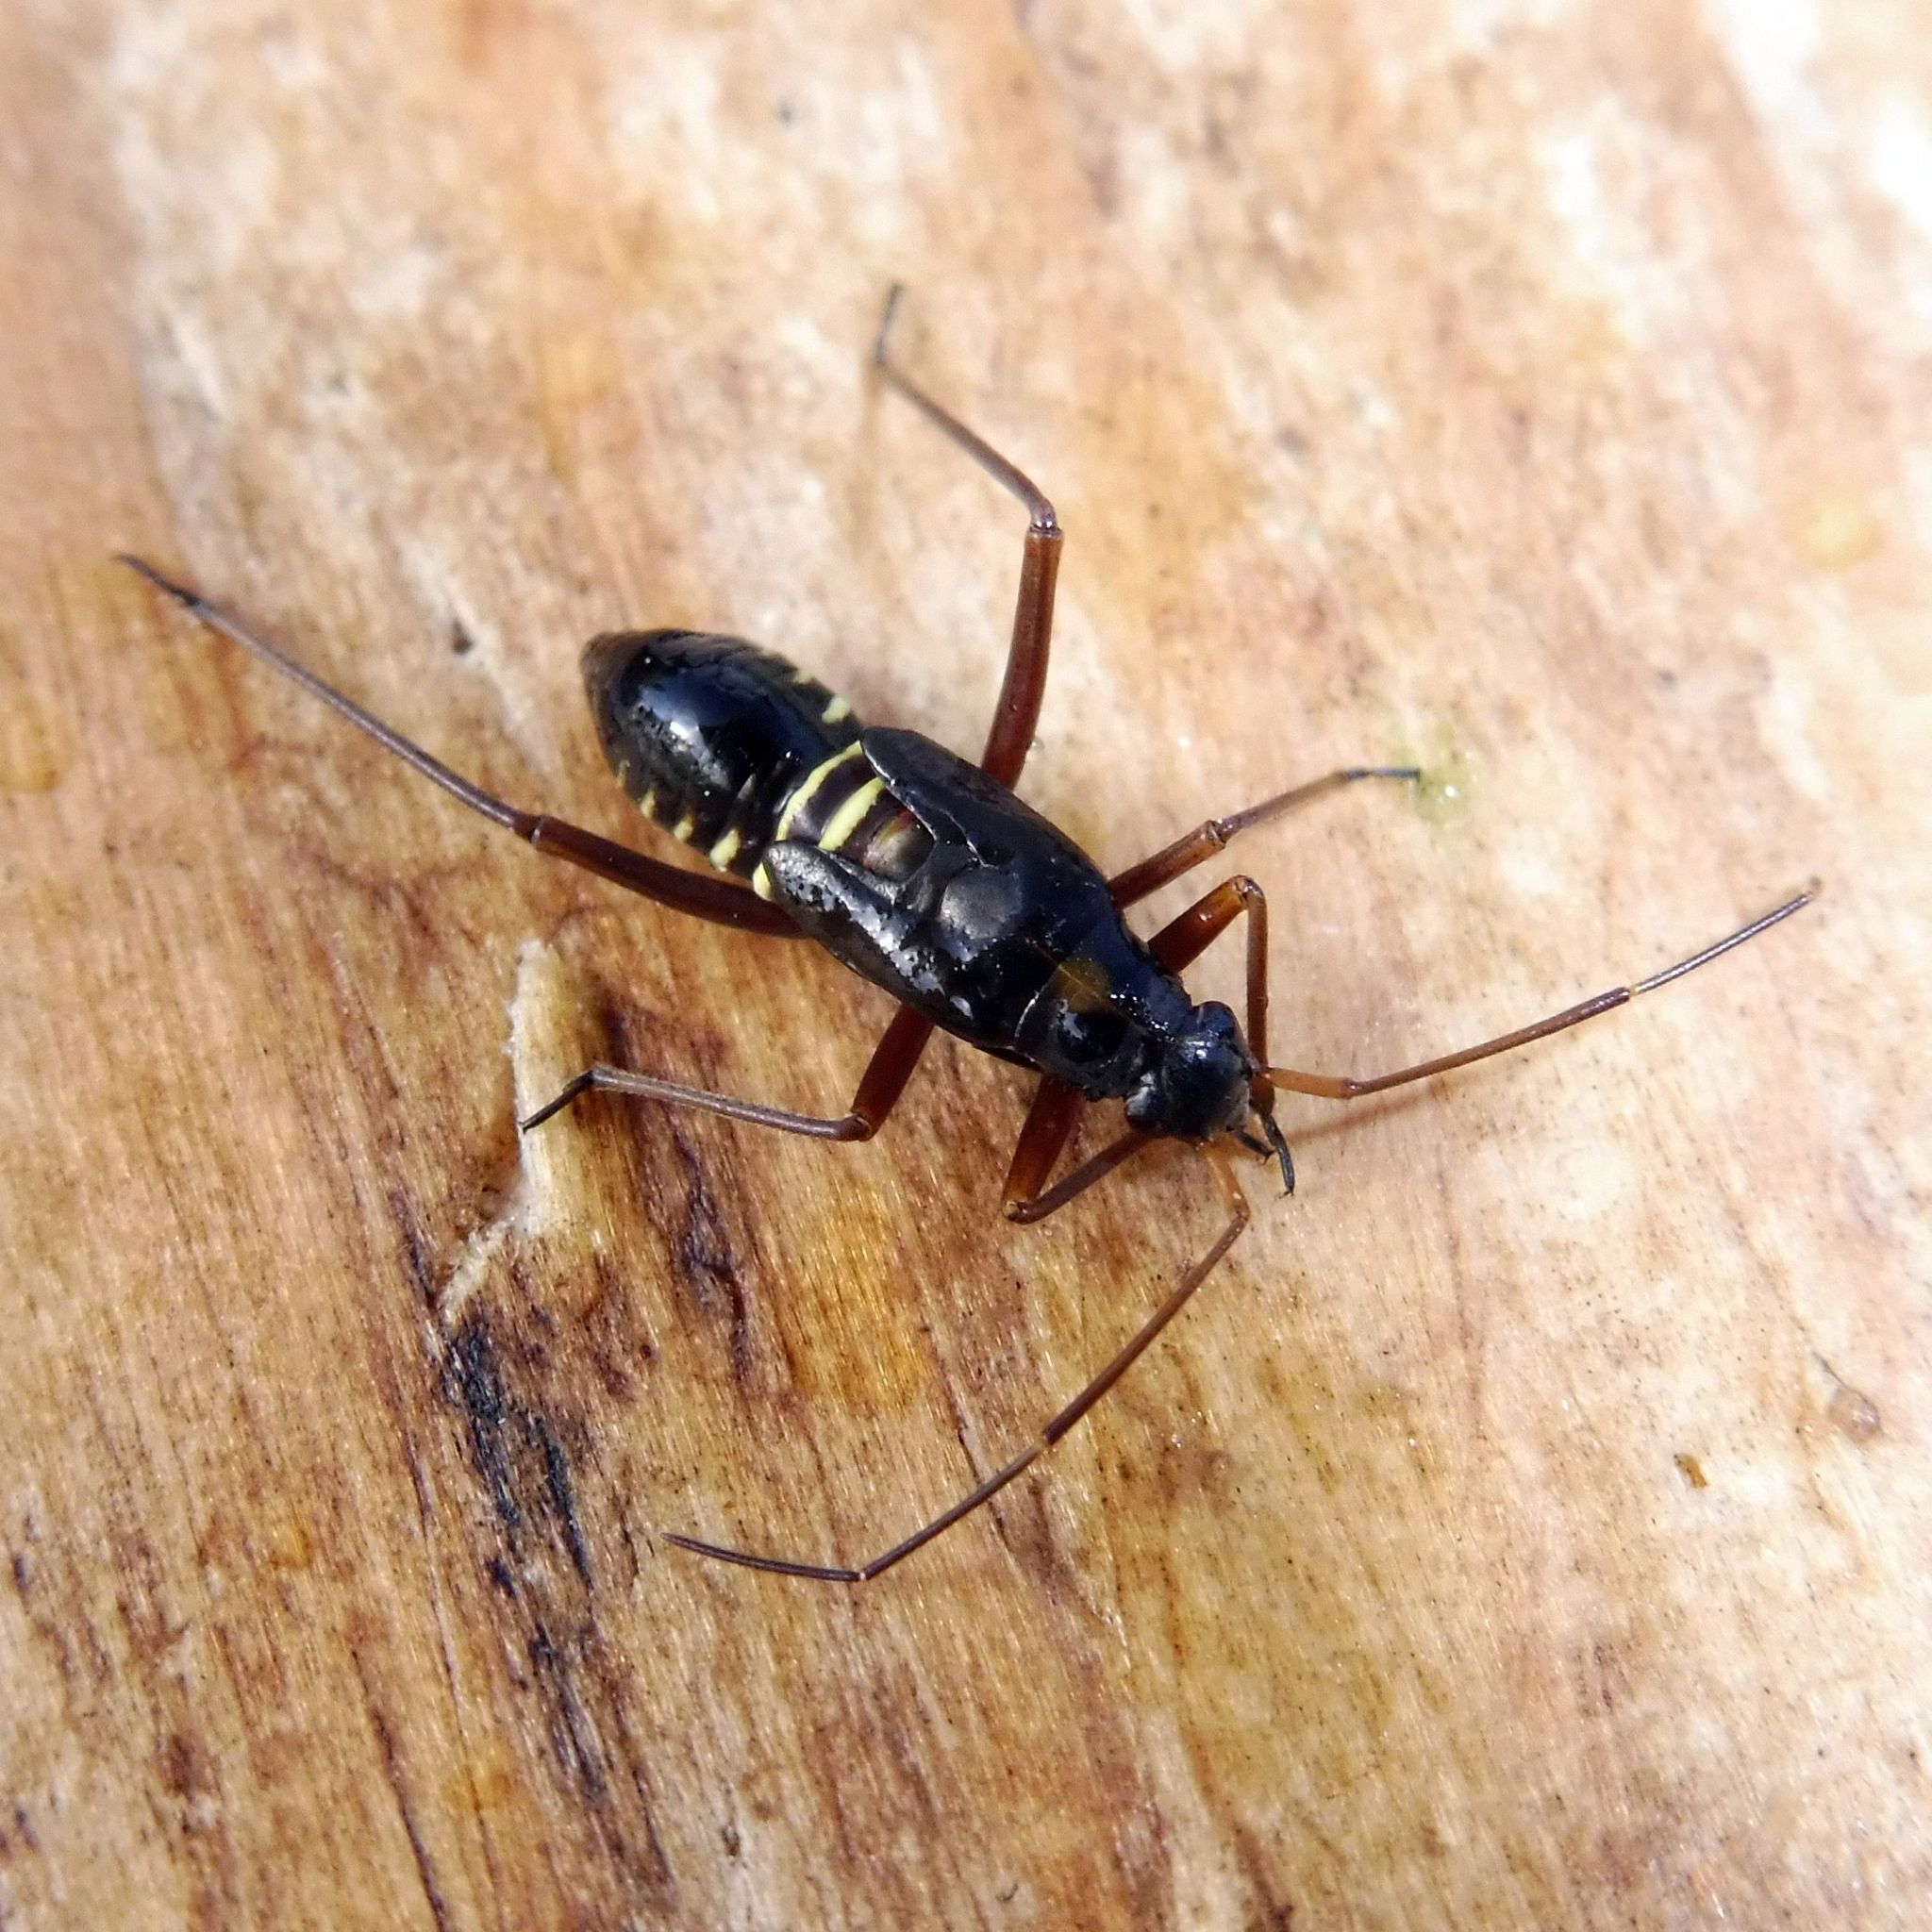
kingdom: Animalia
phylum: Arthropoda
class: Insecta
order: Hemiptera
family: Miridae
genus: Miris
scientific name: Miris striatus
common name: Fine streaked bugkin
